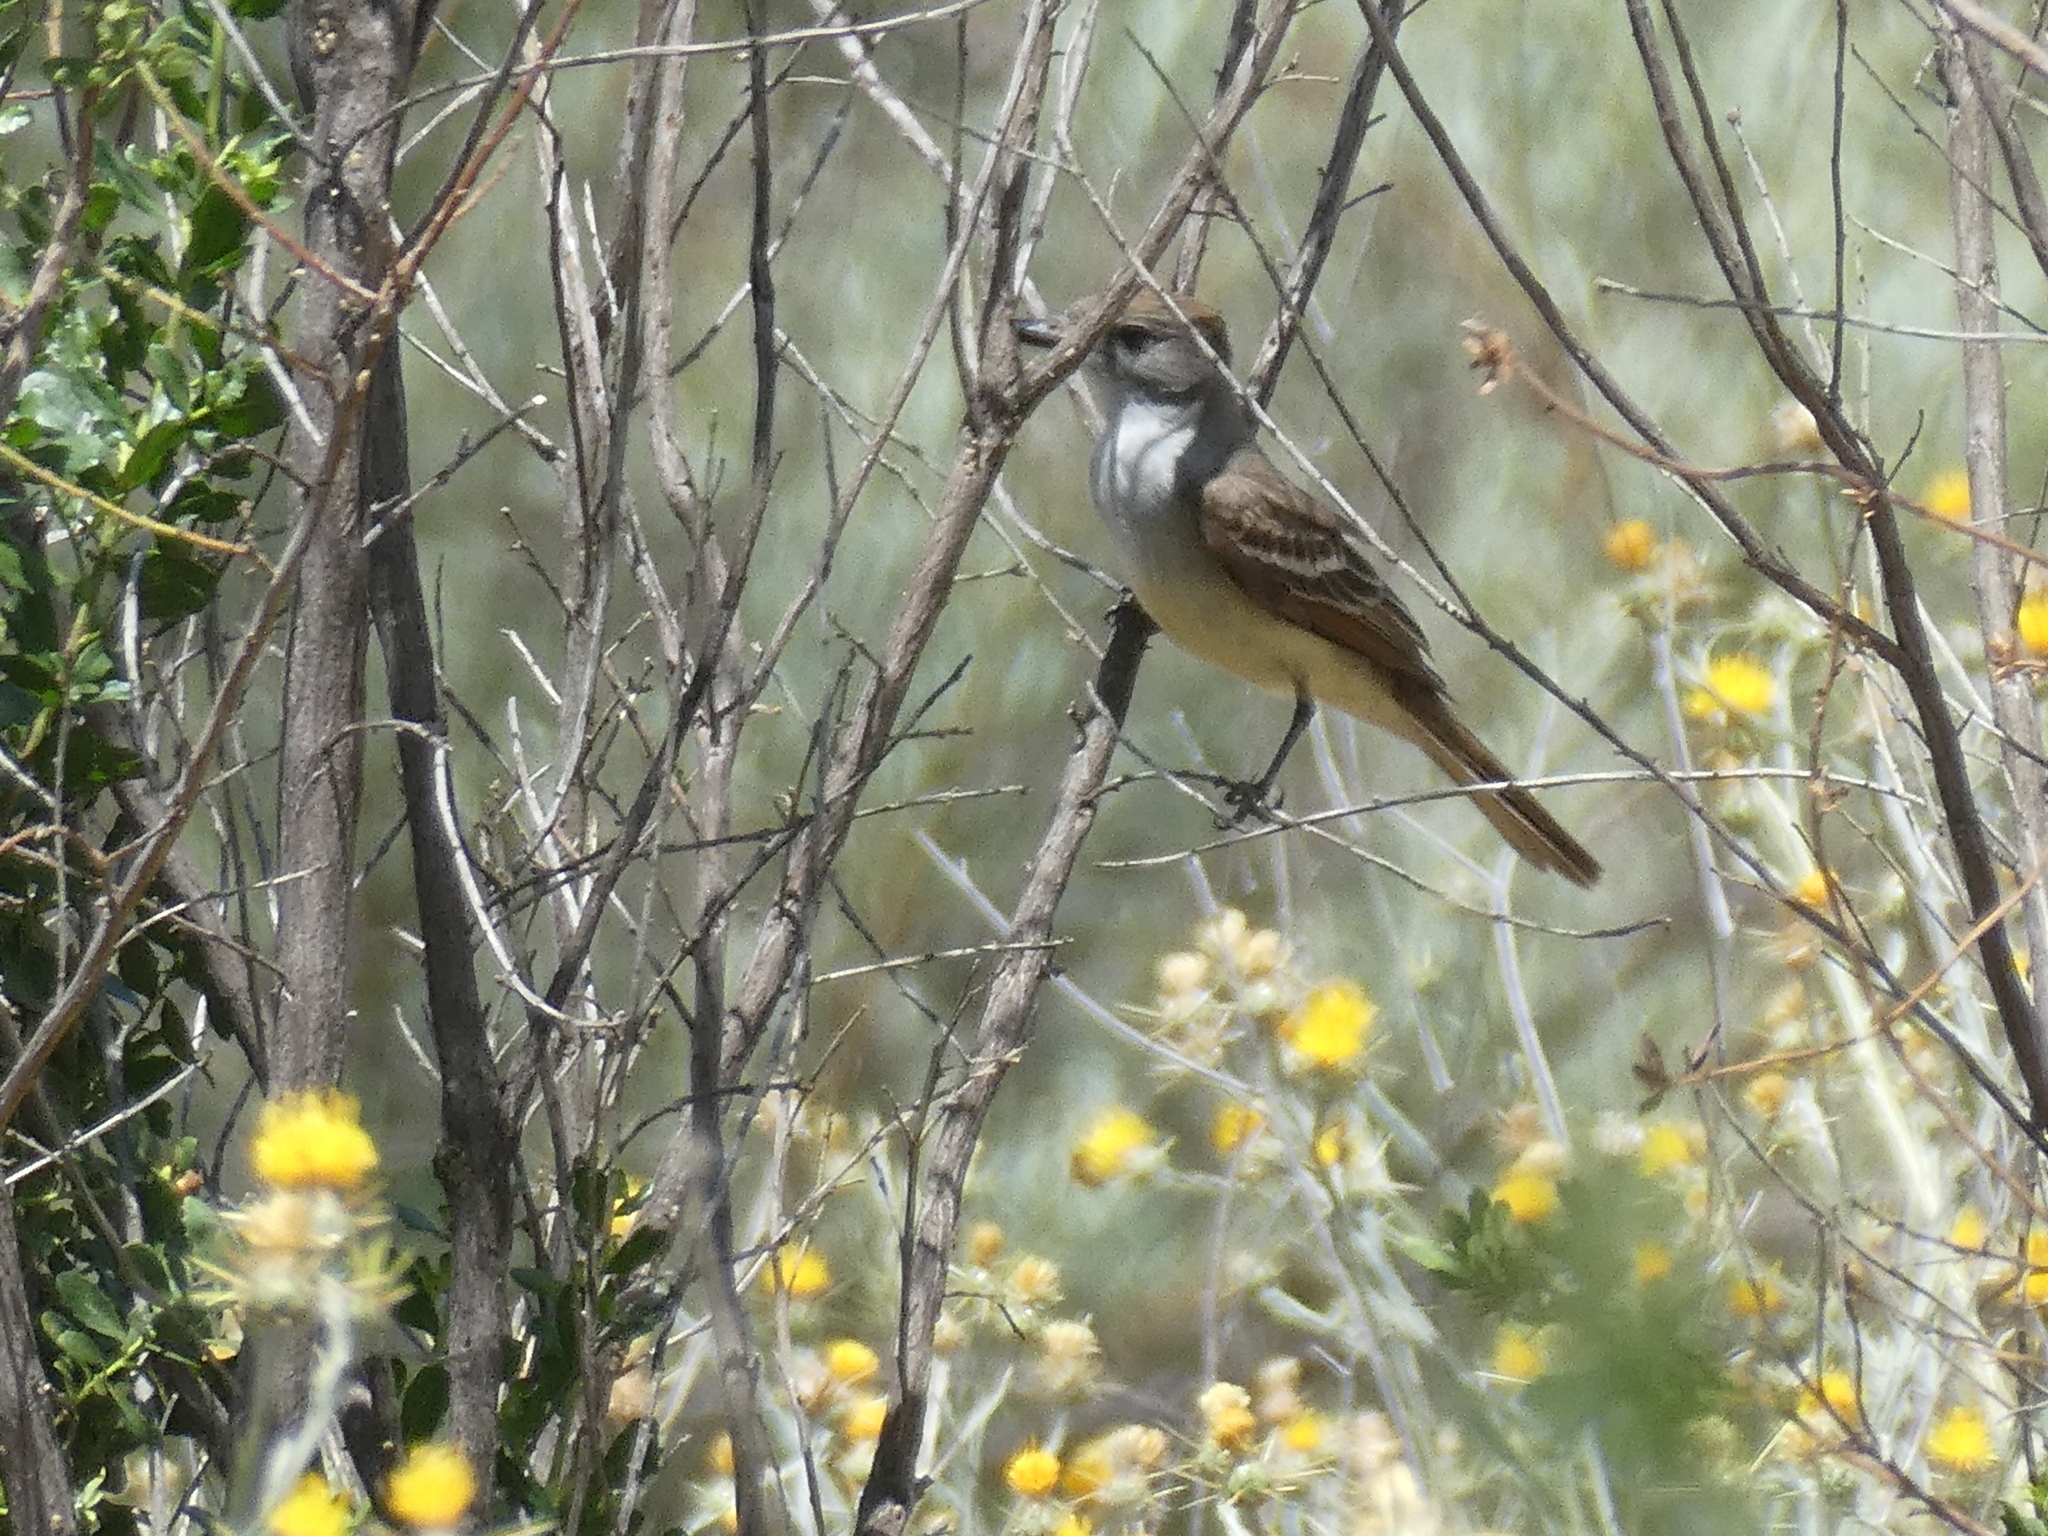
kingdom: Animalia
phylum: Chordata
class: Aves
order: Passeriformes
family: Tyrannidae
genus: Myiarchus
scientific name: Myiarchus cinerascens
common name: Ash-throated flycatcher
